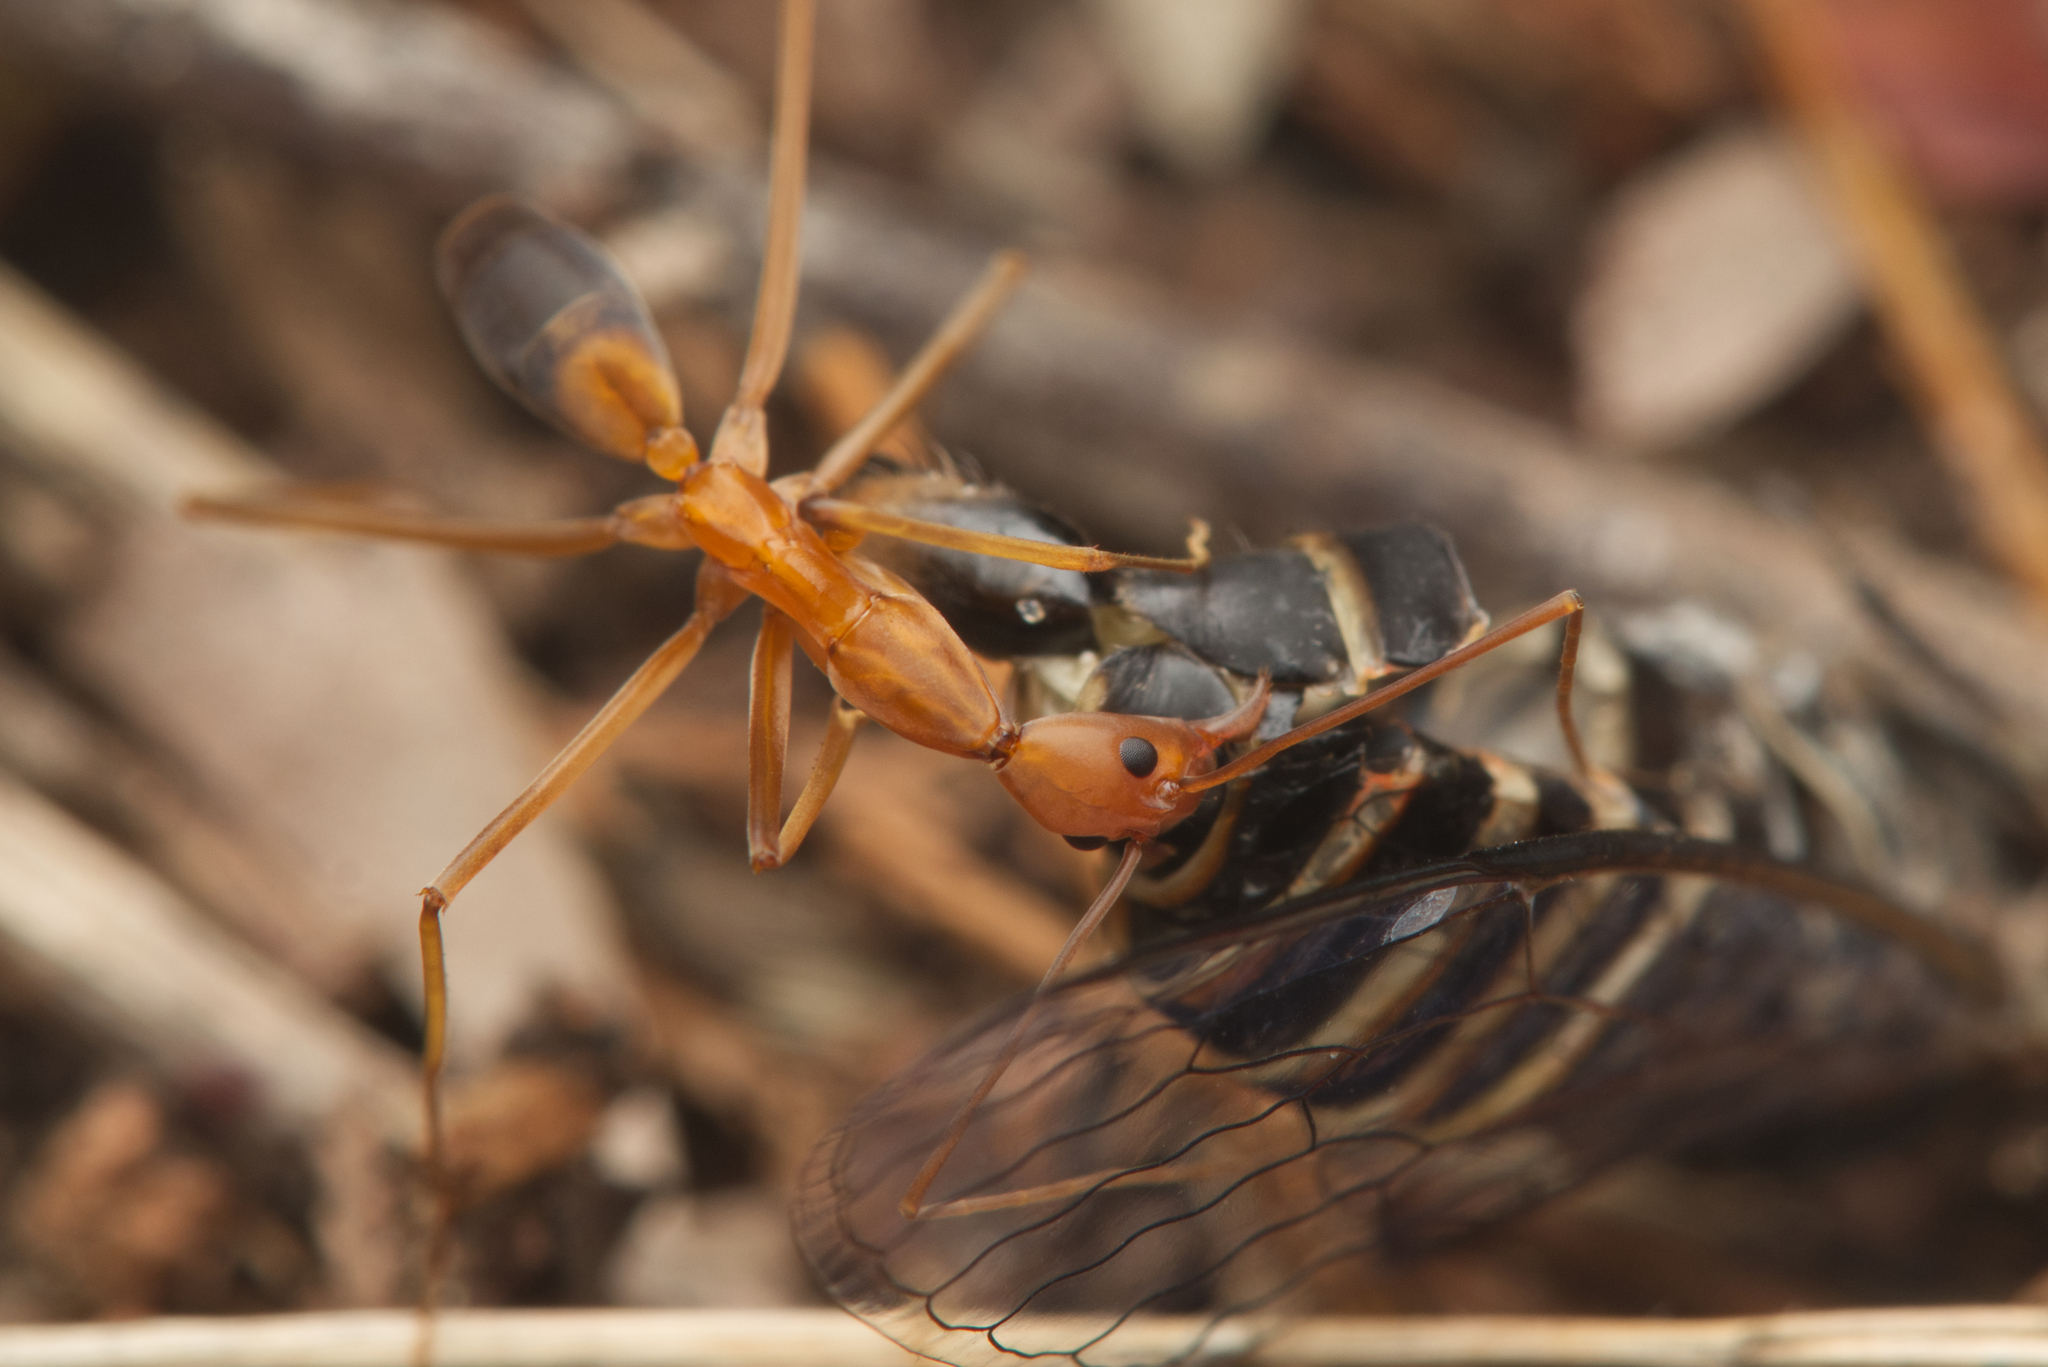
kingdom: Animalia
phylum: Arthropoda
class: Insecta
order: Hymenoptera
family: Formicidae
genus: Leptomyrmex
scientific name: Leptomyrmex rufipes
